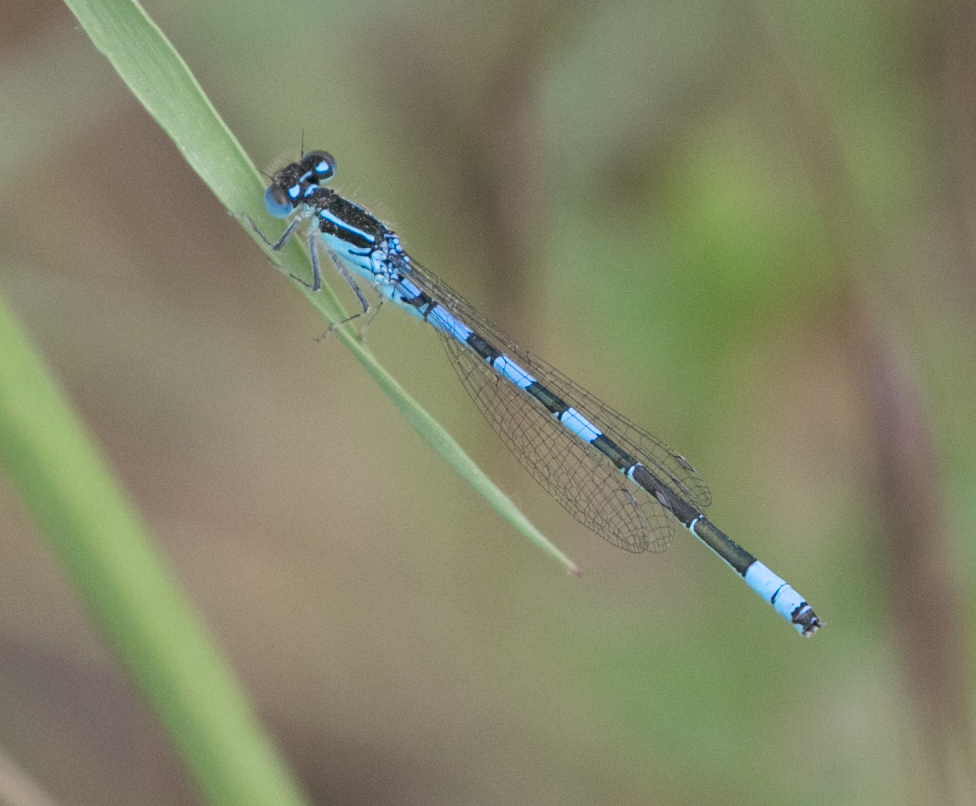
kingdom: Animalia
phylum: Arthropoda
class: Insecta
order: Odonata
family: Coenagrionidae
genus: Coenagrion
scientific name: Coenagrion scitulum
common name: Dainty bluet
